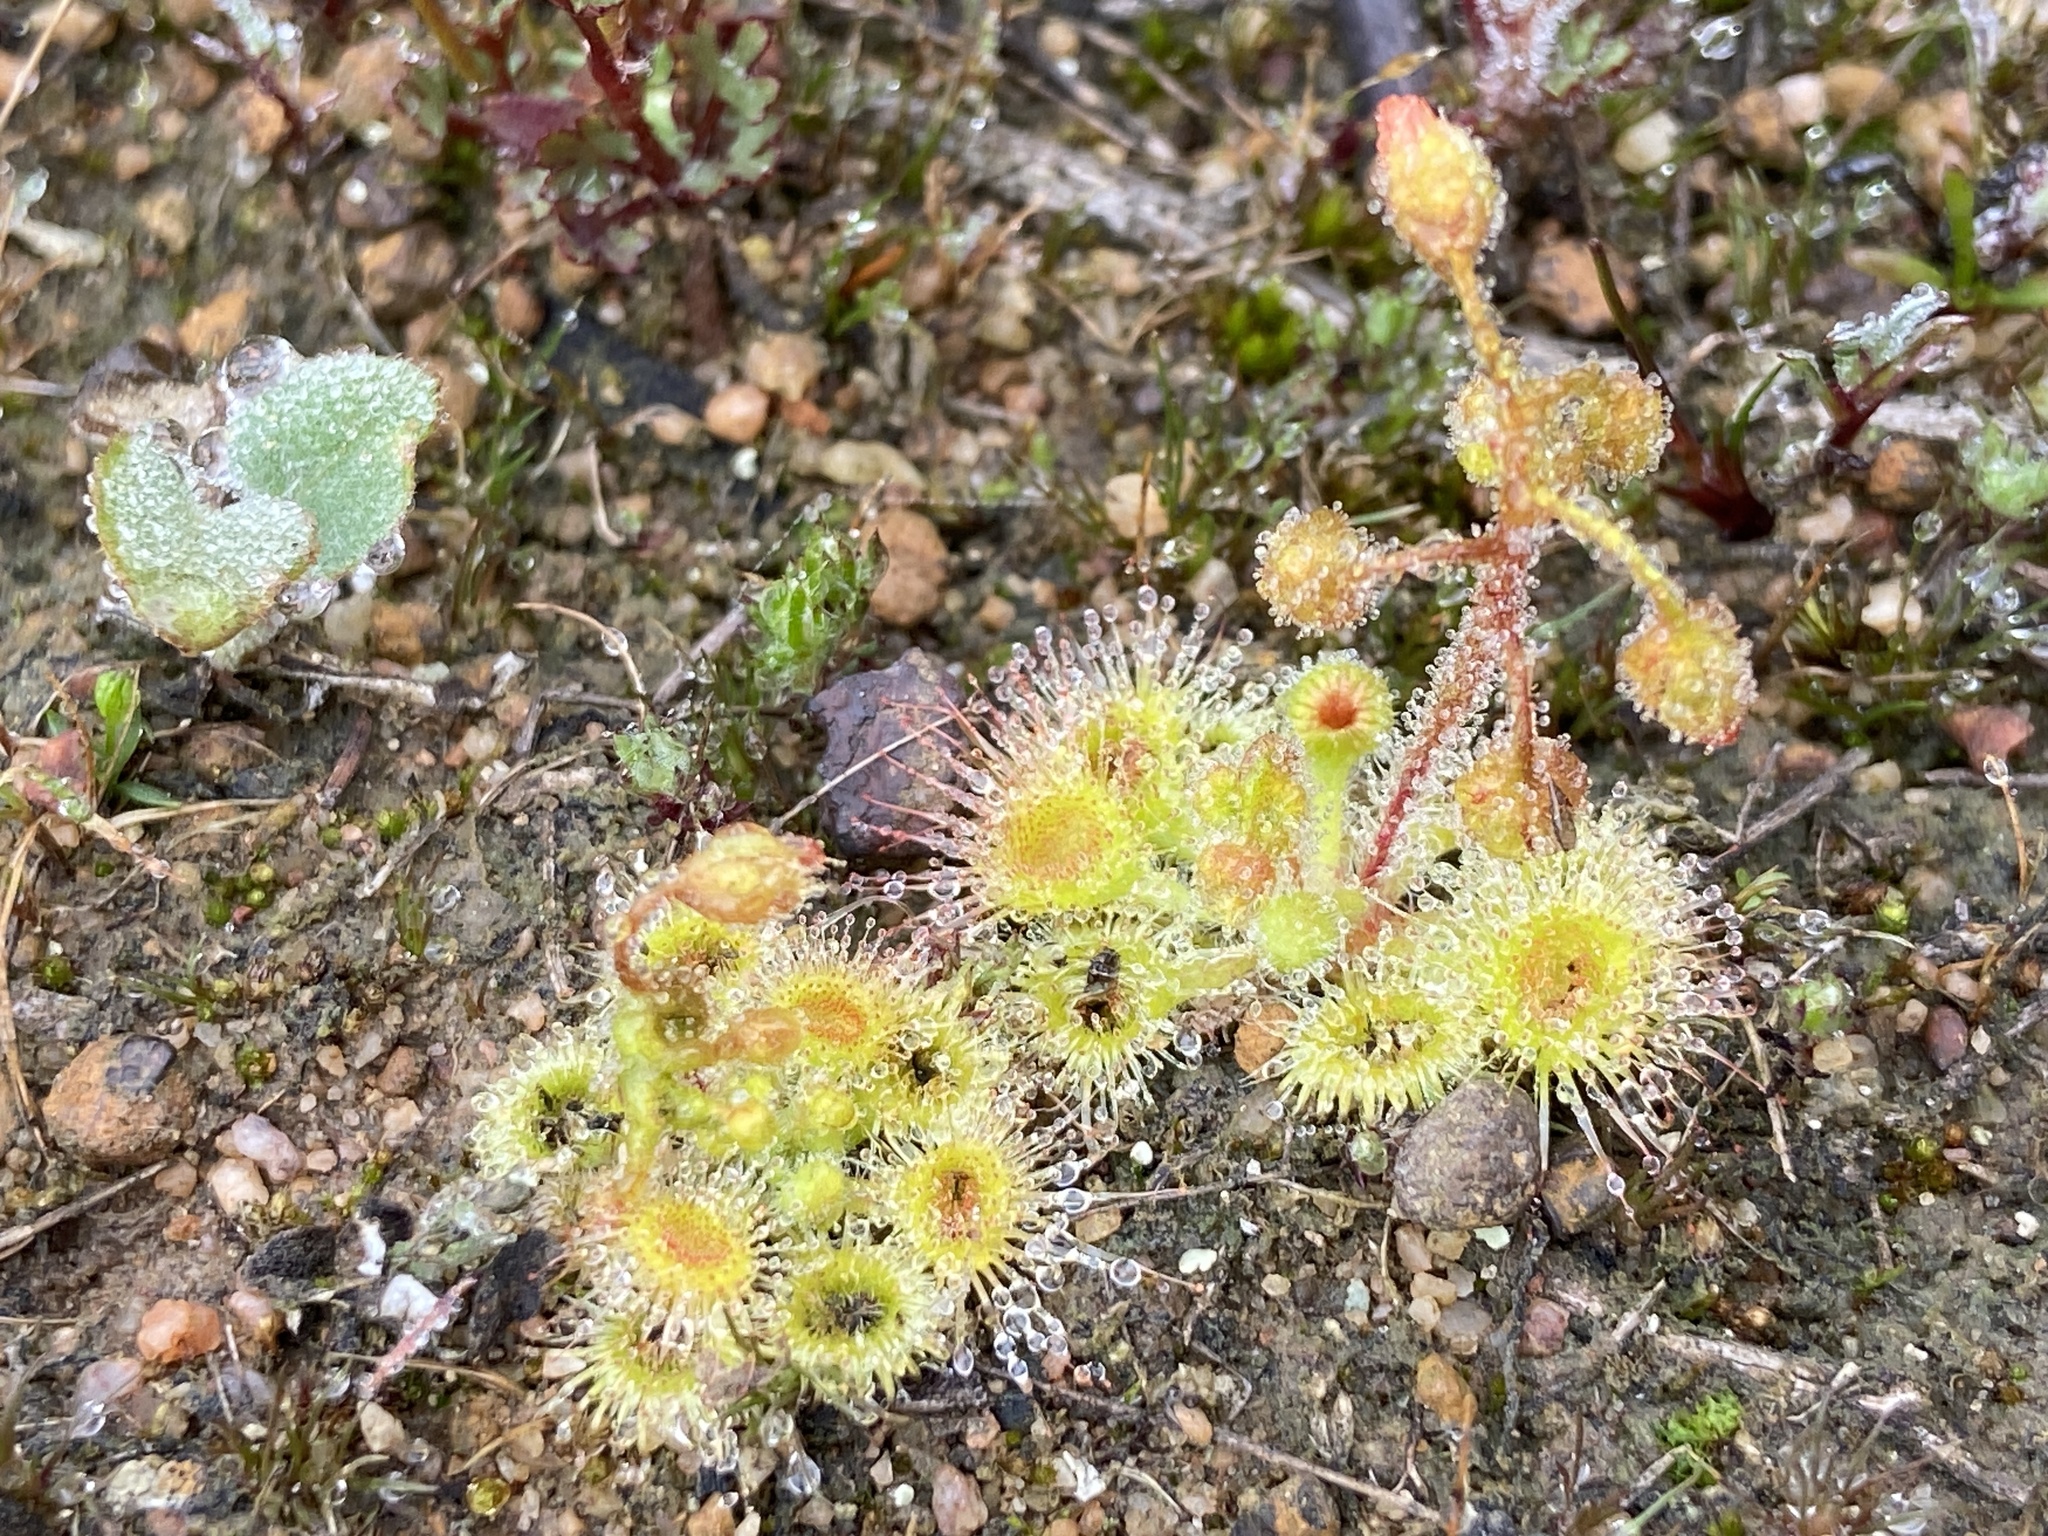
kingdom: Plantae
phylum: Tracheophyta
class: Magnoliopsida
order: Caryophyllales
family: Droseraceae
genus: Drosera
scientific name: Drosera glanduligera
